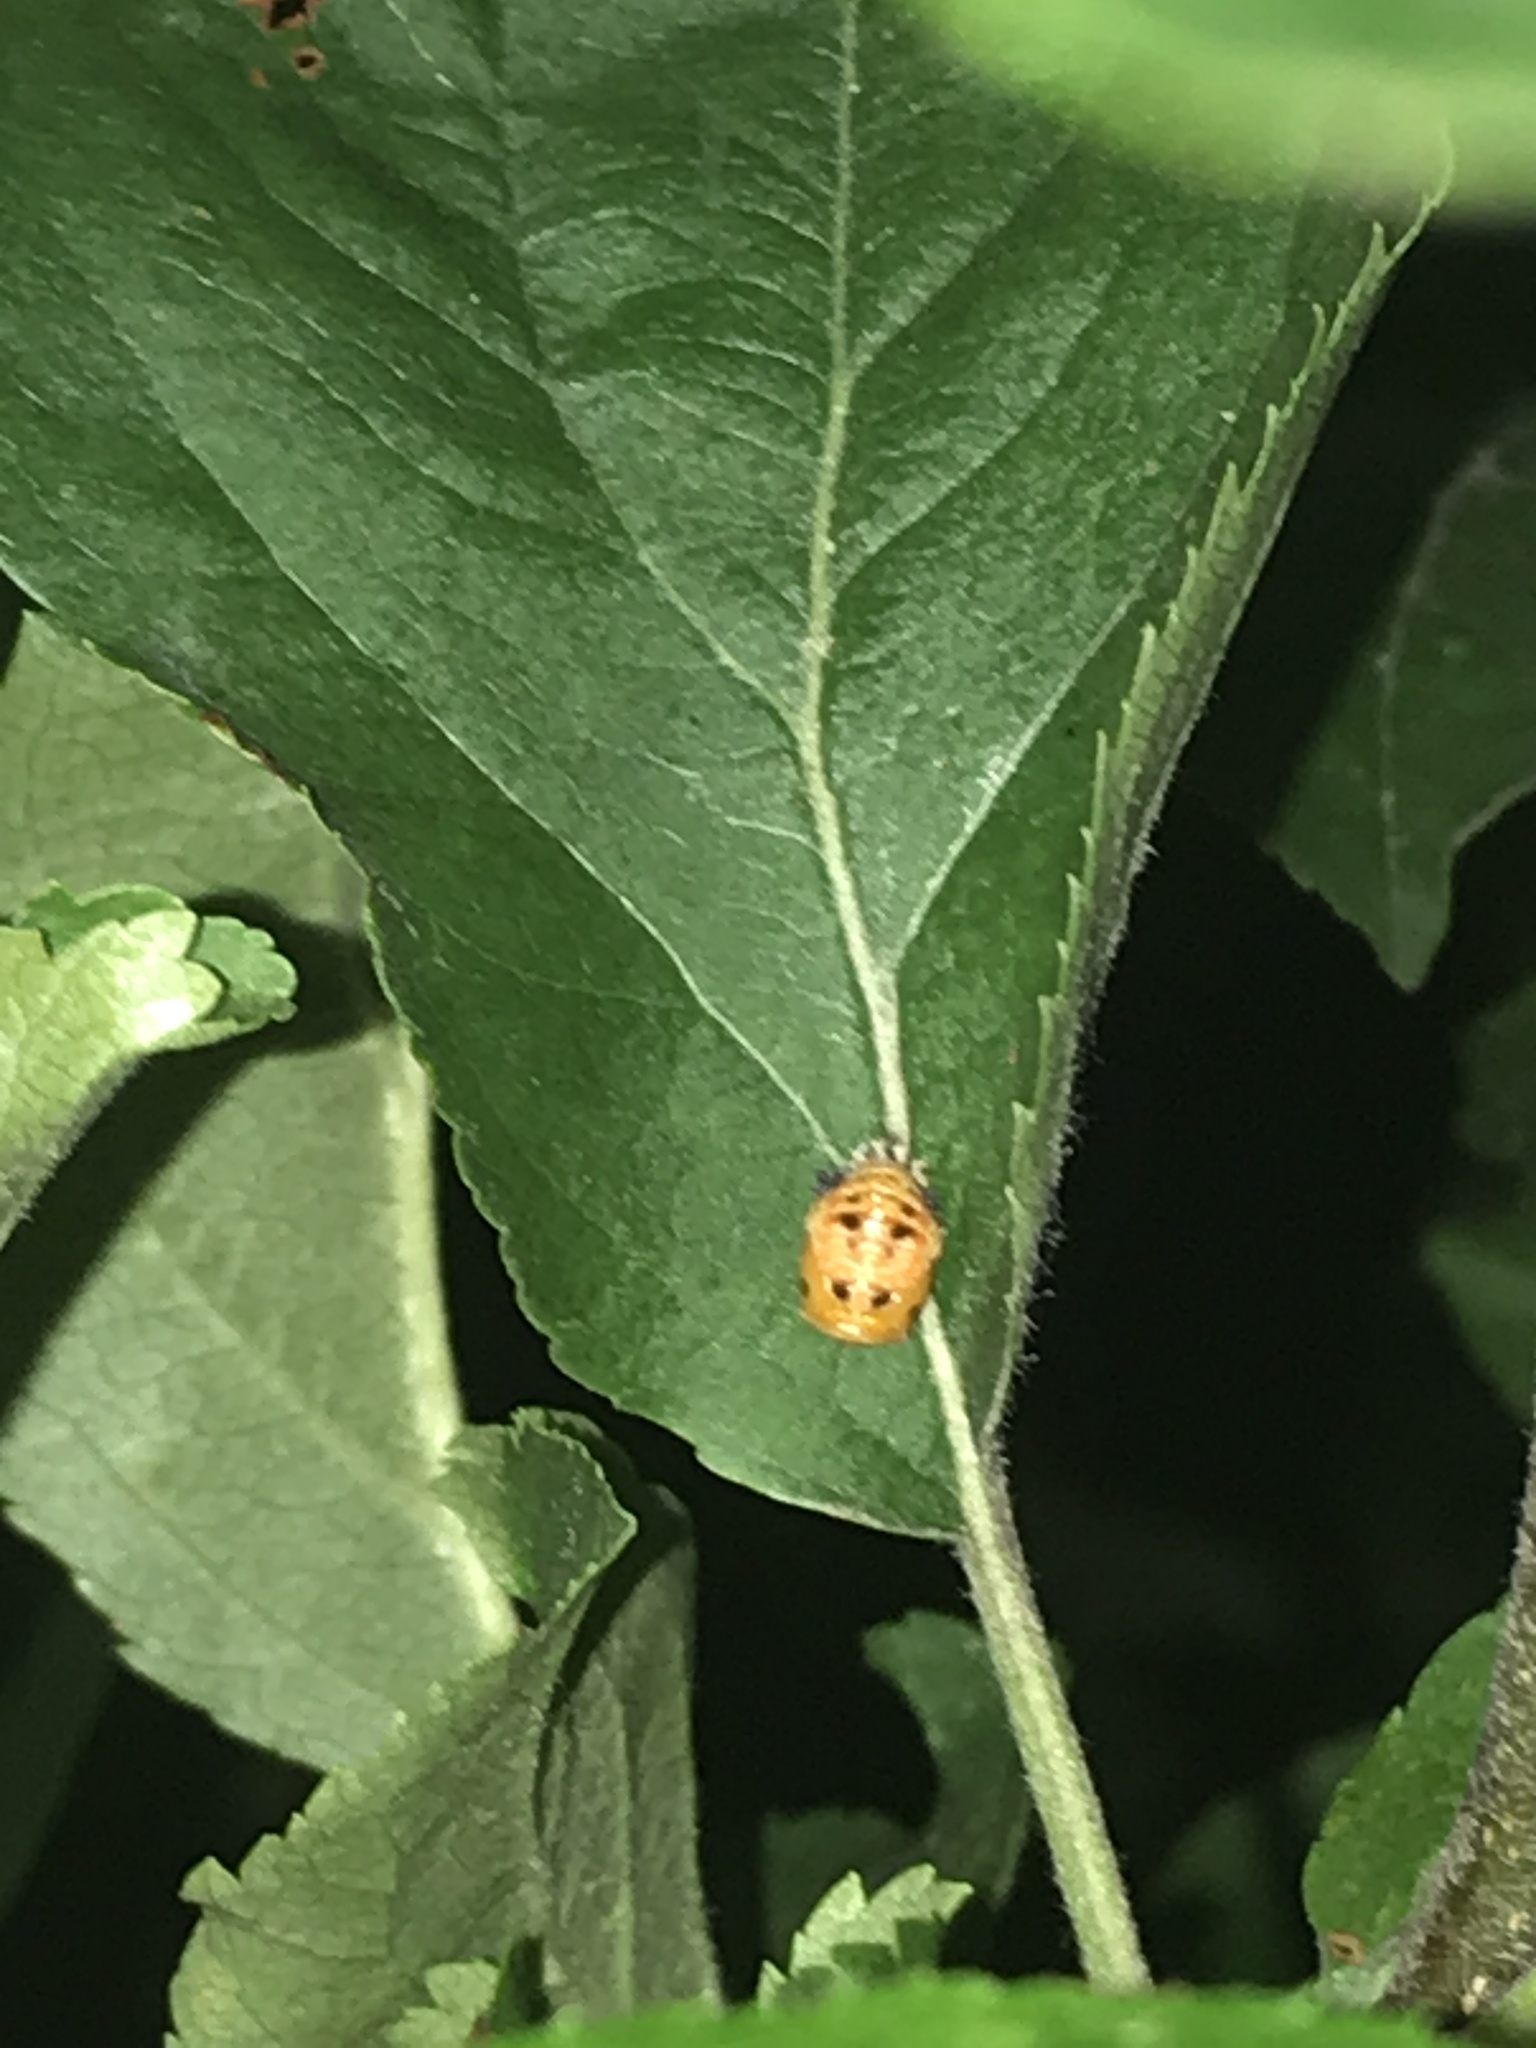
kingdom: Animalia
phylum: Arthropoda
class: Insecta
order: Coleoptera
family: Coccinellidae
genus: Harmonia
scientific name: Harmonia axyridis
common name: Harlequin ladybird
